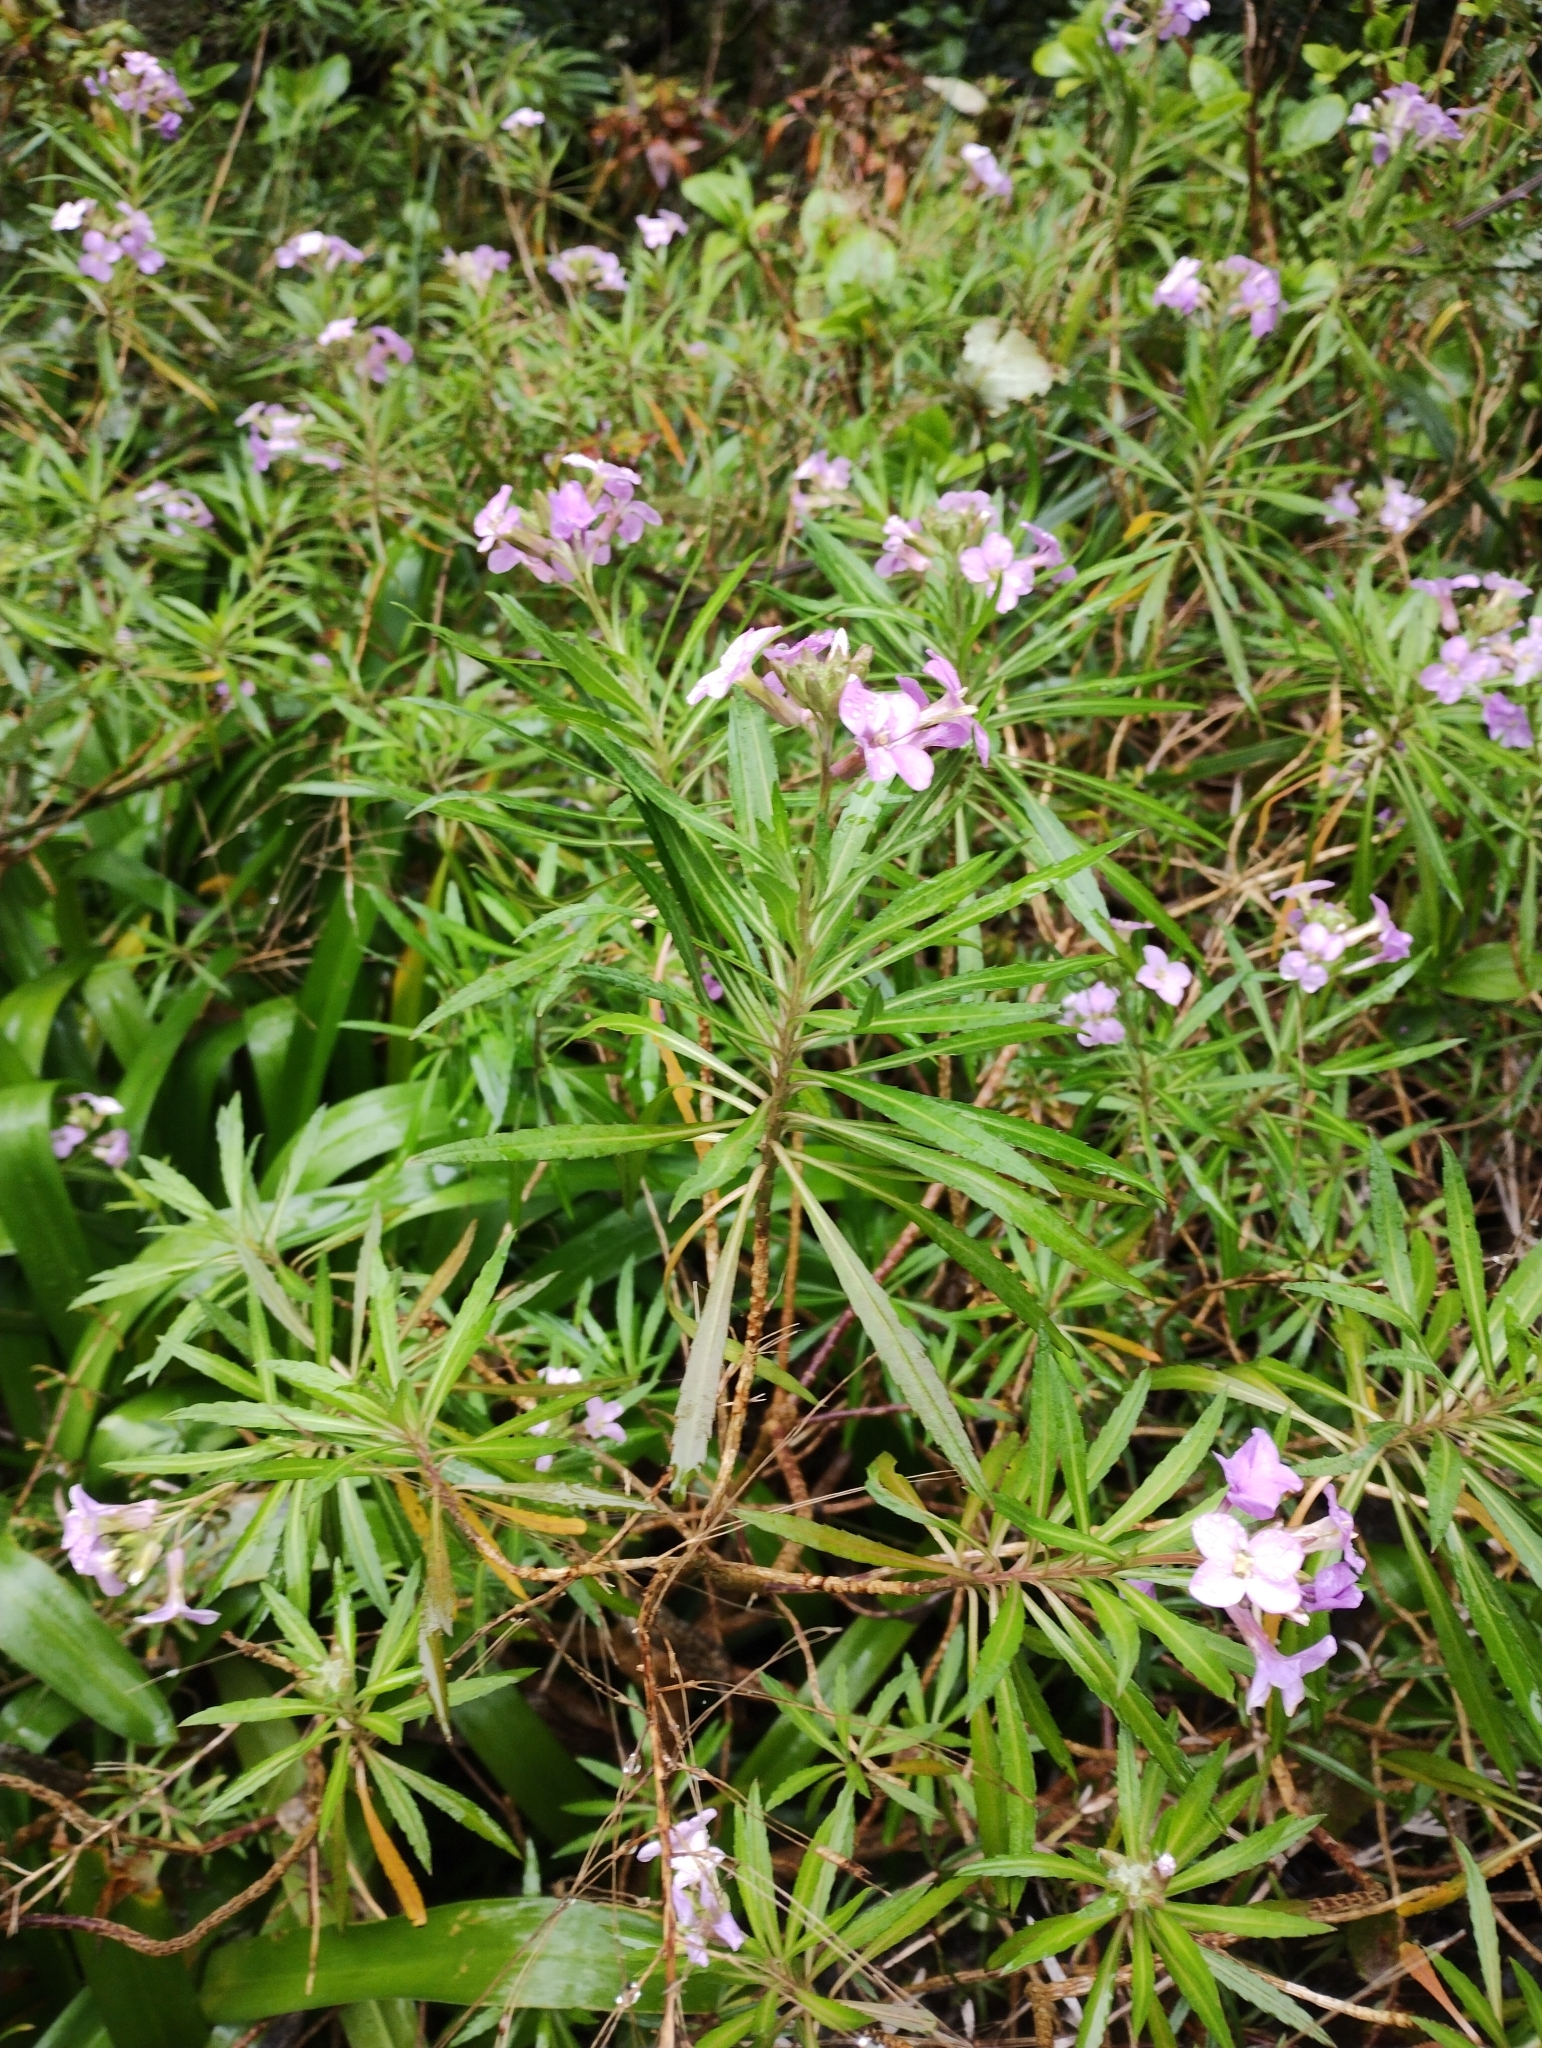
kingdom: Plantae
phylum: Tracheophyta
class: Magnoliopsida
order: Brassicales
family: Brassicaceae
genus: Erysimum
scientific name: Erysimum bicolor
